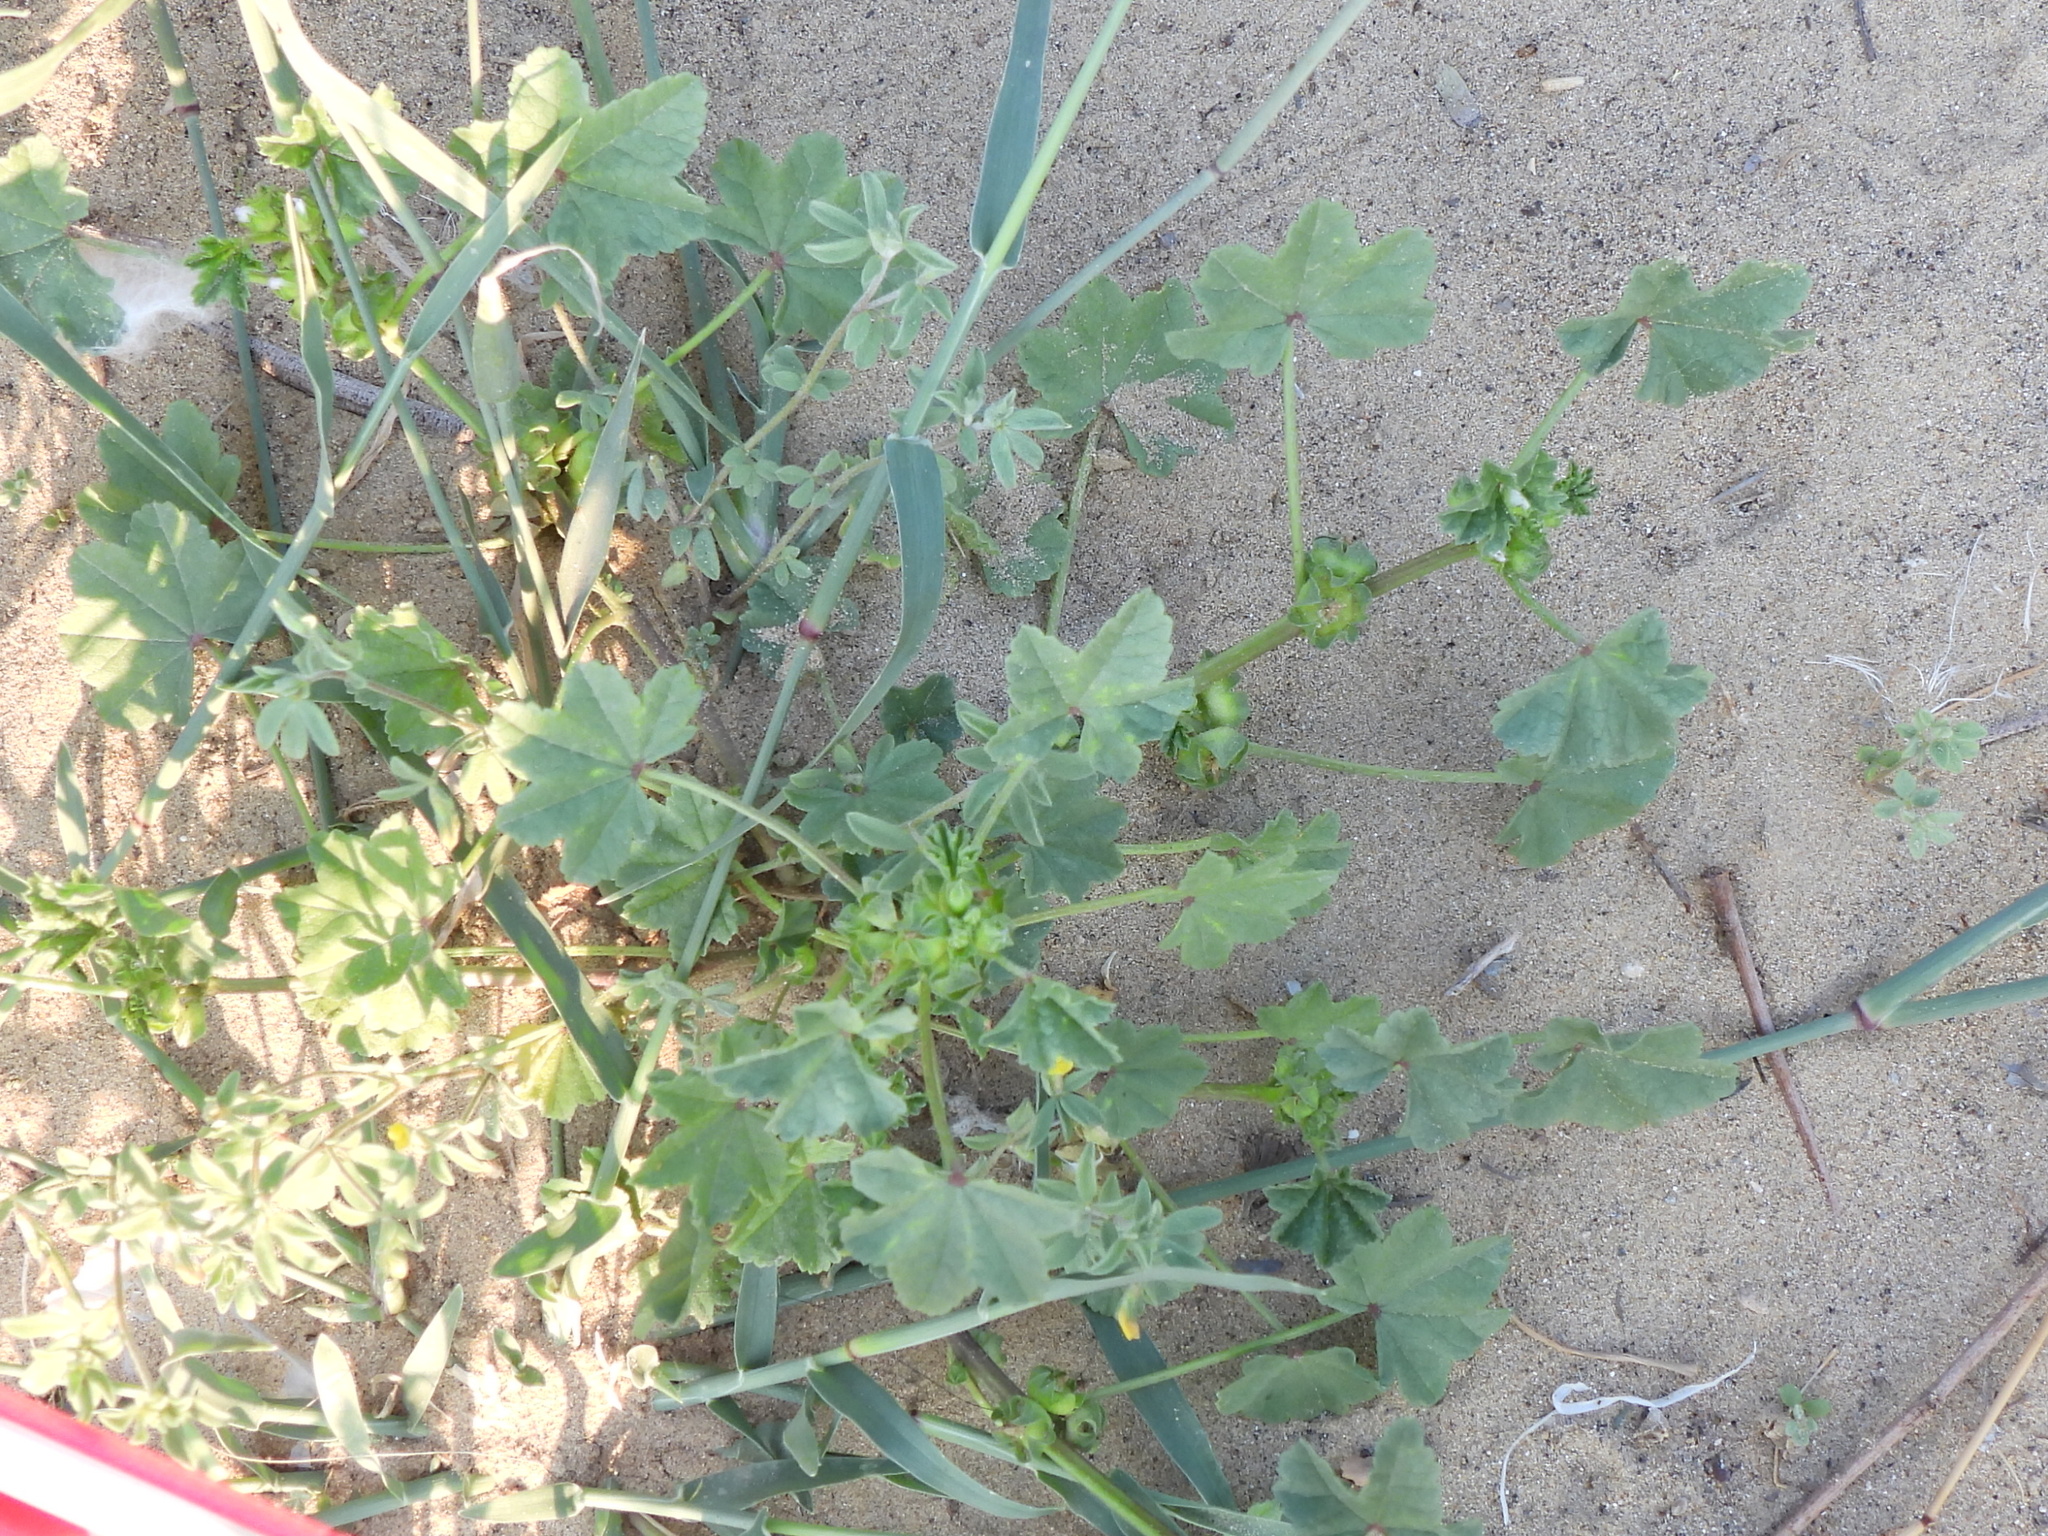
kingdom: Plantae
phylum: Tracheophyta
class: Magnoliopsida
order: Malvales
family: Malvaceae
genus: Malva
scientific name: Malva parviflora
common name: Least mallow
